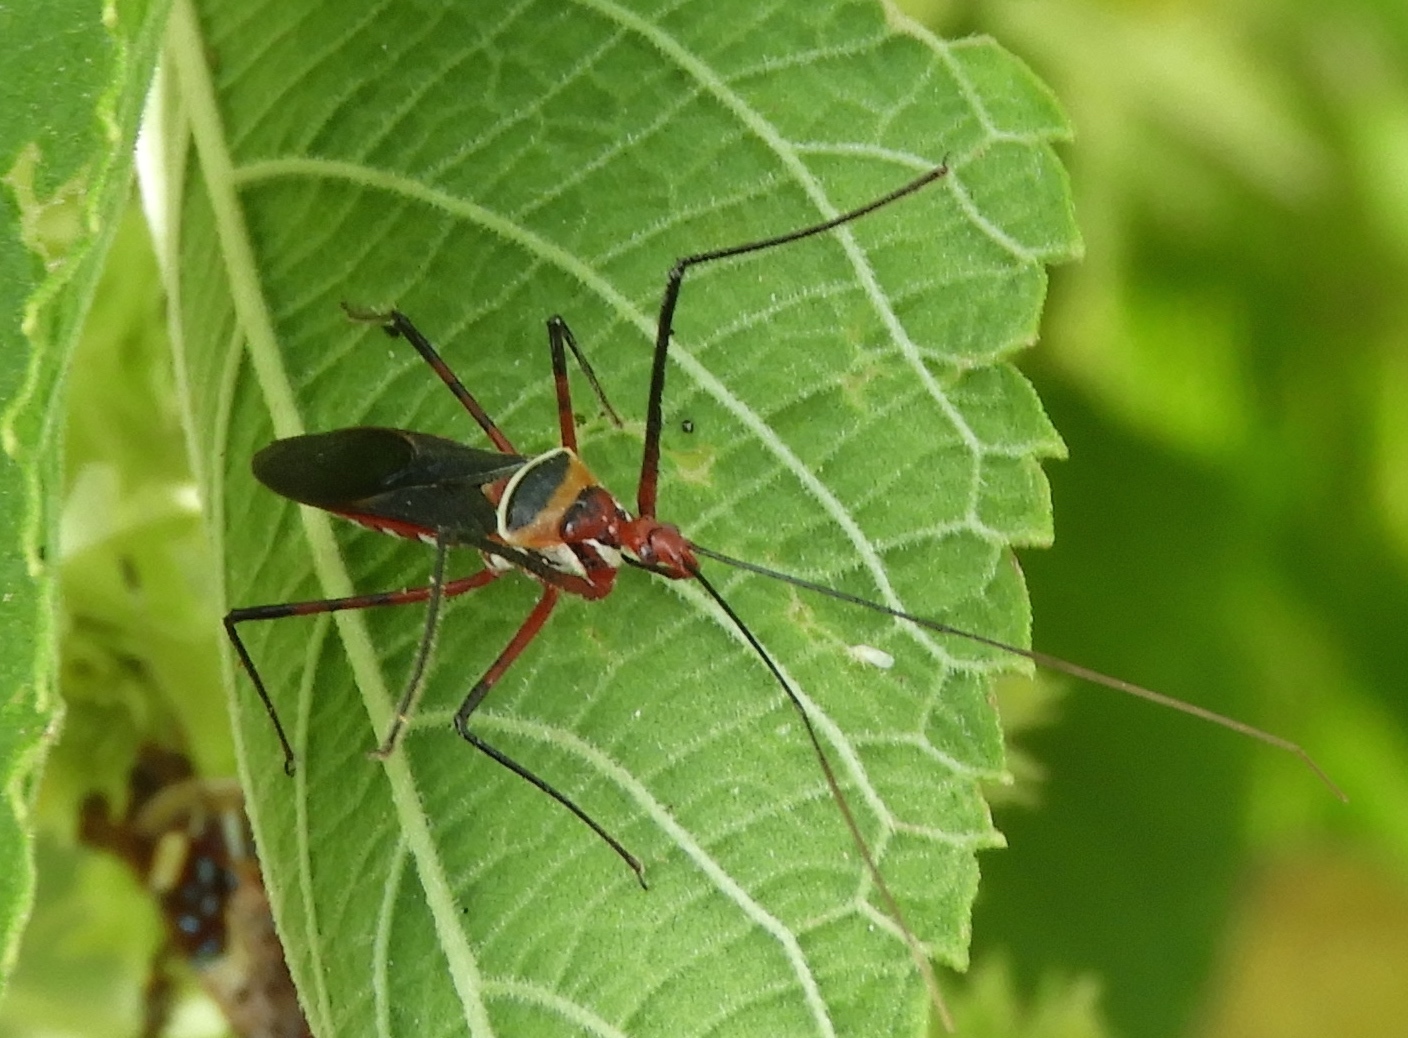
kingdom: Animalia
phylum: Arthropoda
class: Insecta
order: Hemiptera
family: Reduviidae
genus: Zelus
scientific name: Zelus grassans
